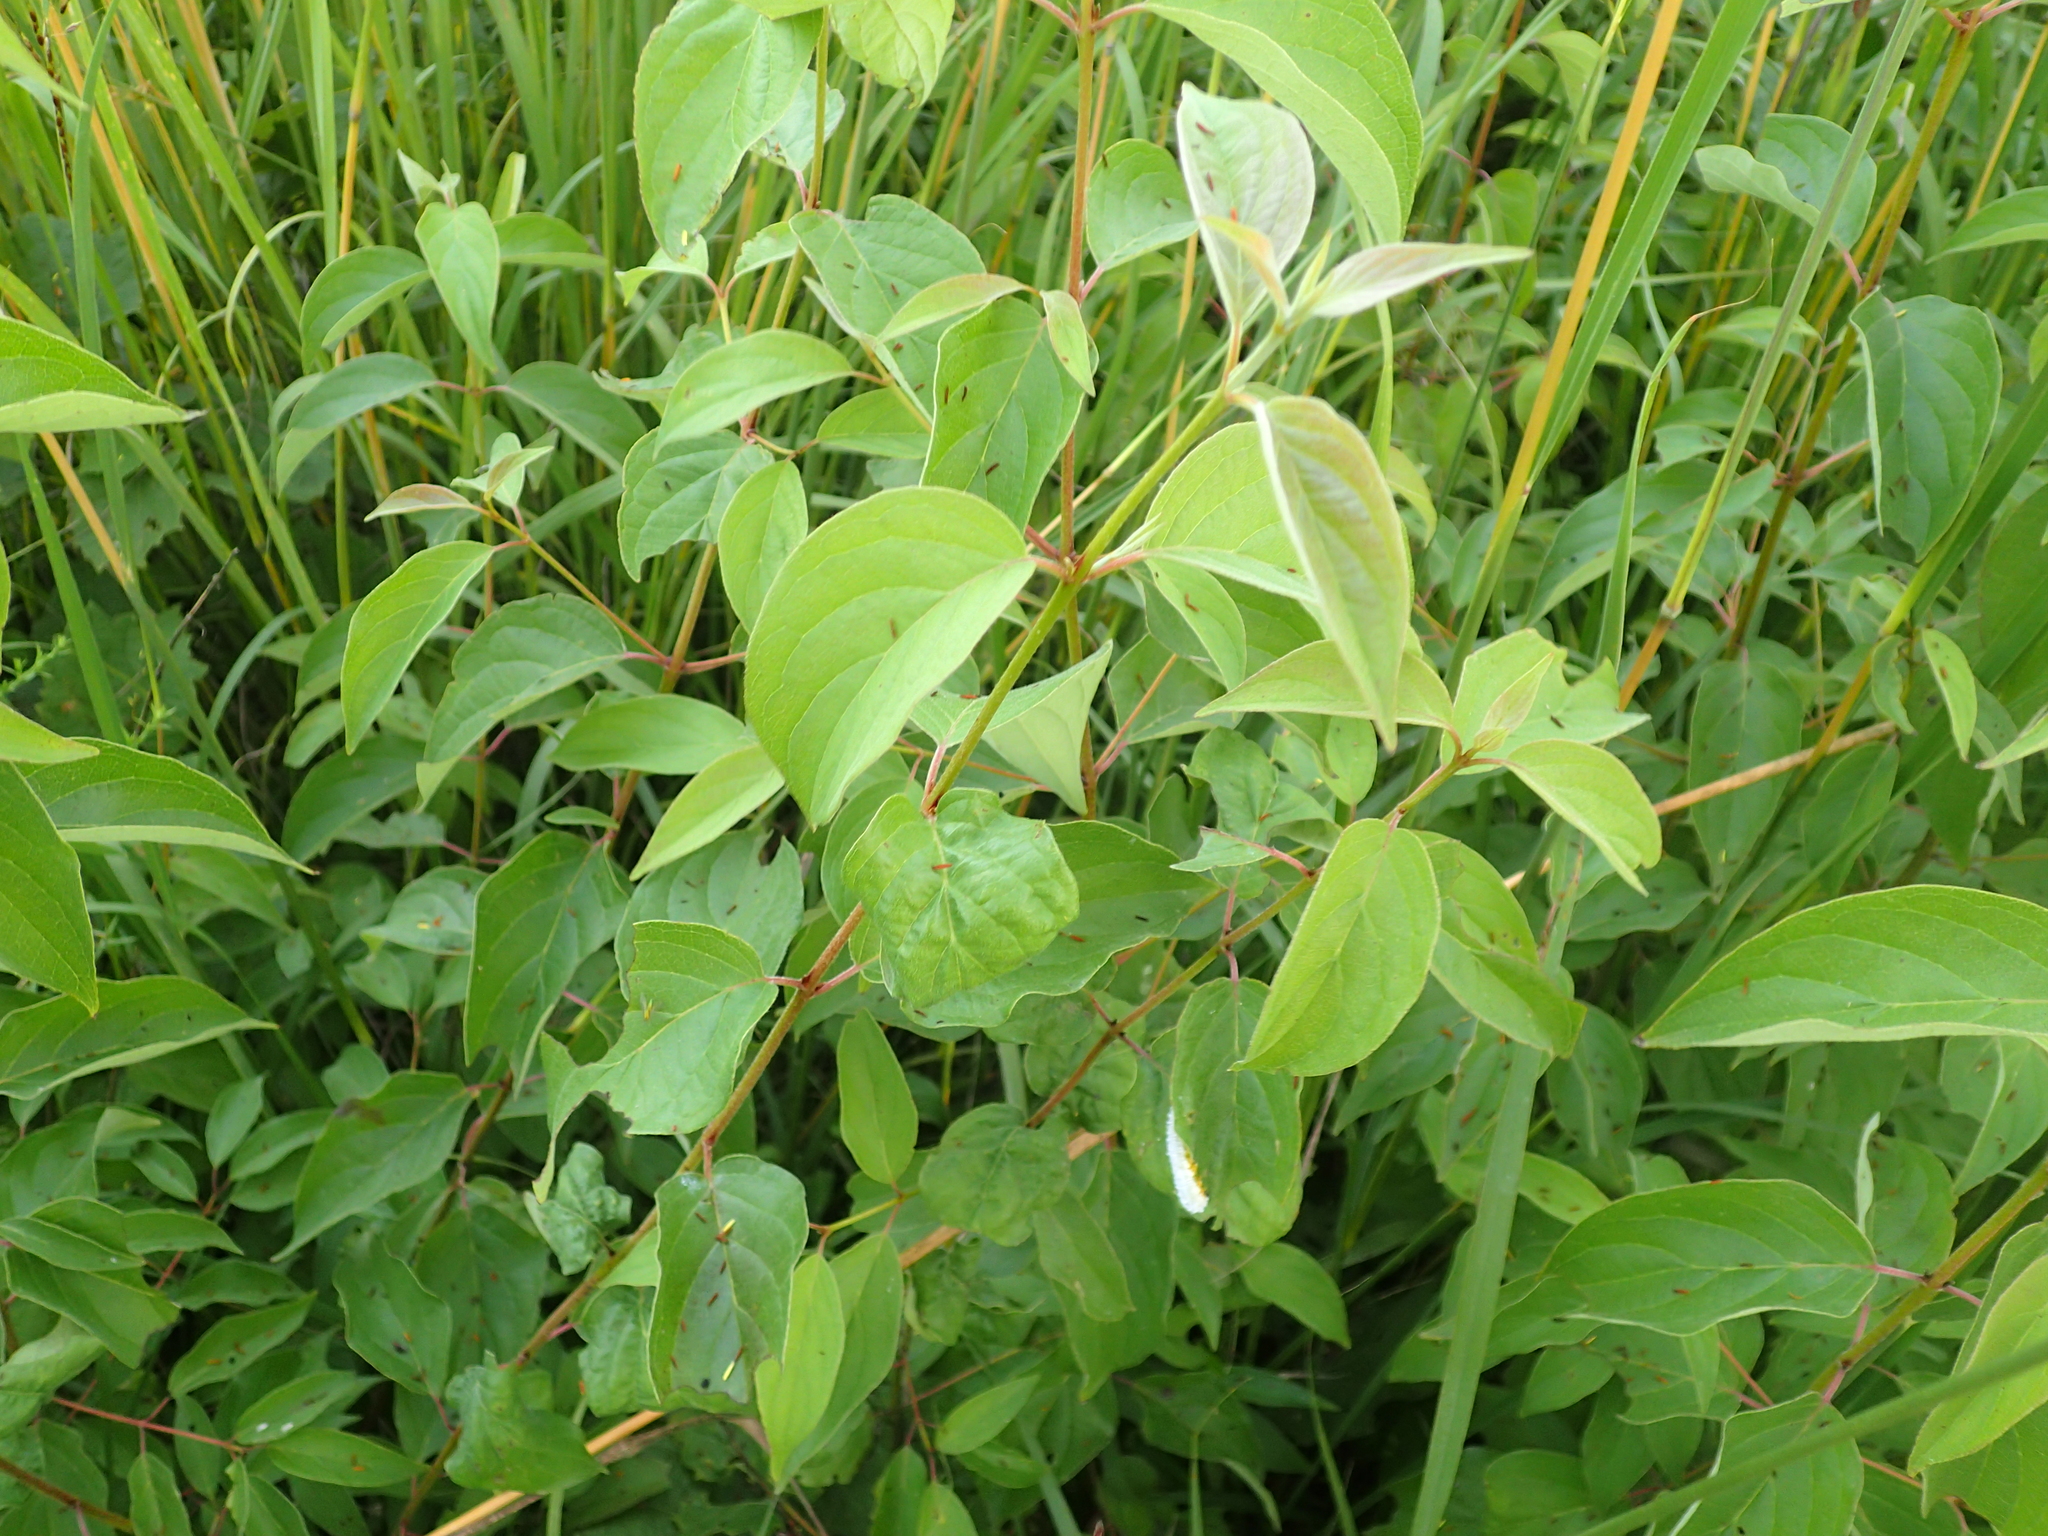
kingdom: Animalia
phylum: Arthropoda
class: Insecta
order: Diptera
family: Cecidomyiidae
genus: Parallelodiplosis
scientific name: Parallelodiplosis subtruncata
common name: Dogwood eyespot gall midge
